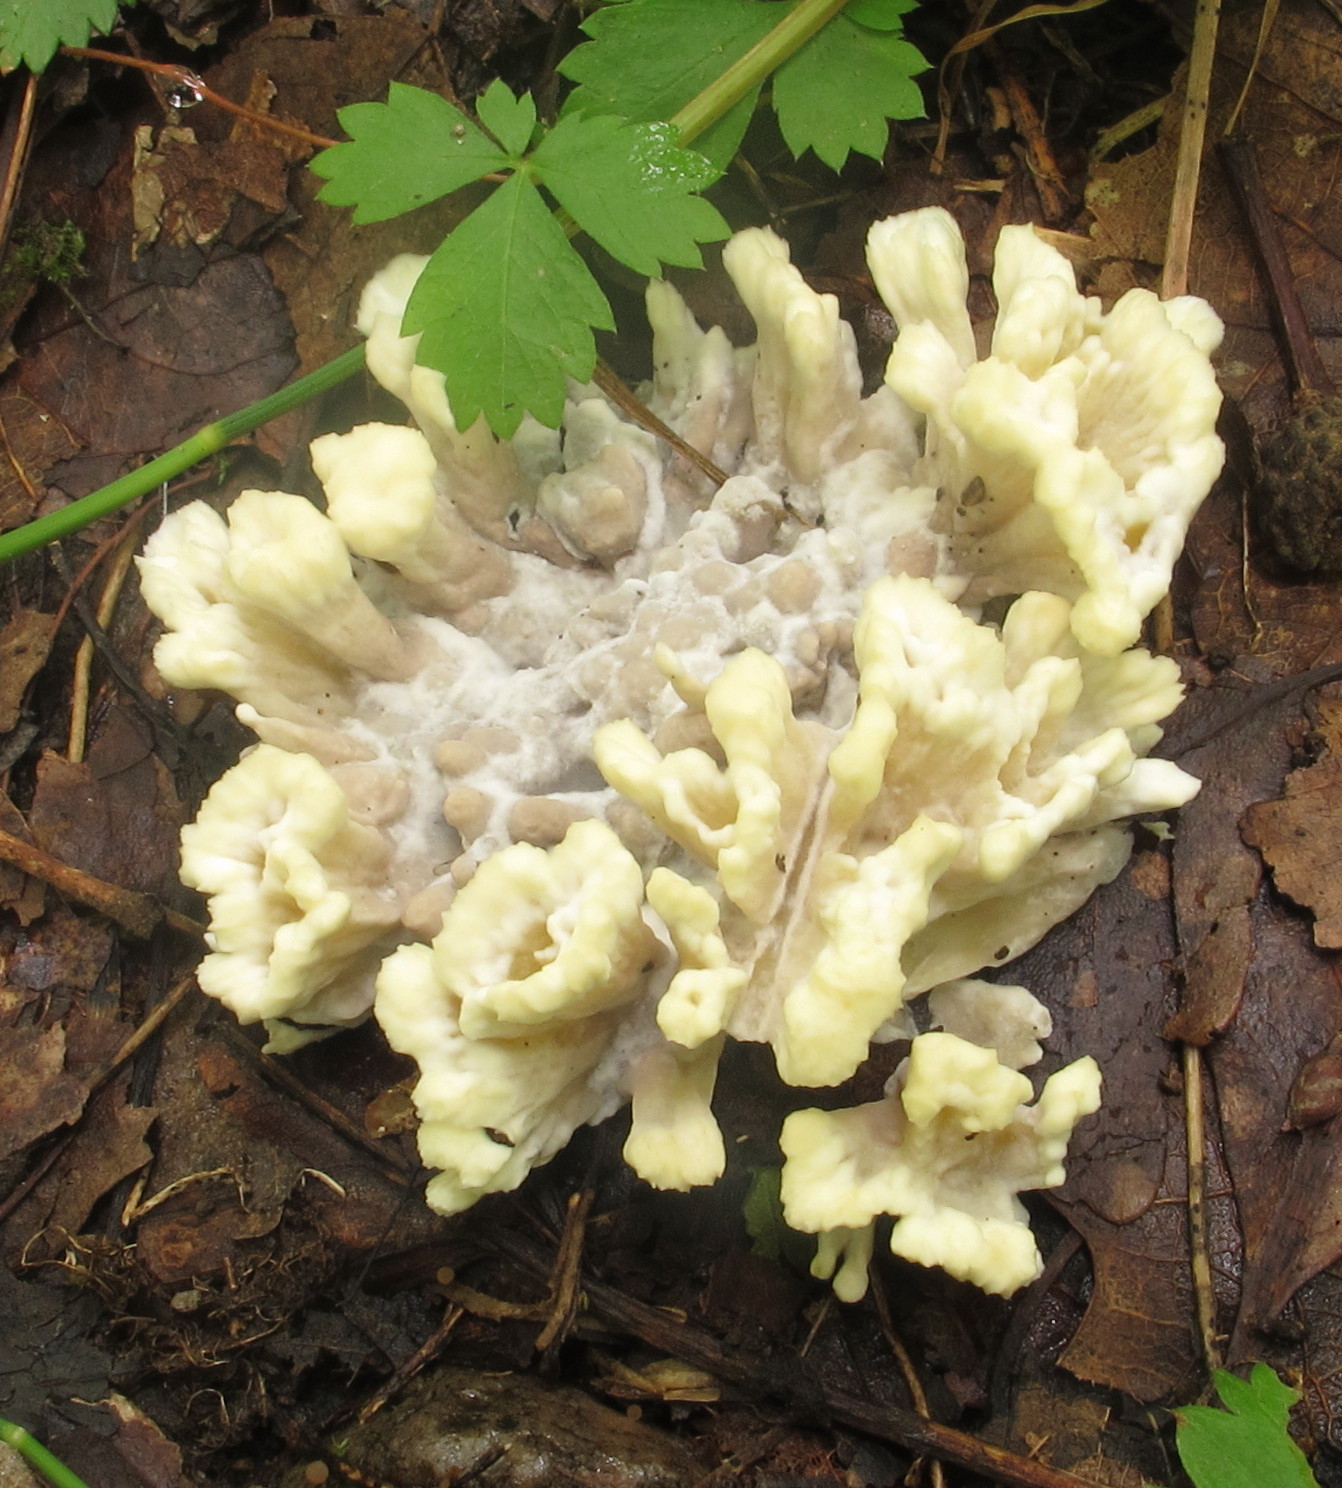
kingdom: Fungi
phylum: Basidiomycota
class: Agaricomycetes
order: Thelephorales
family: Thelephoraceae
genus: Thelephora
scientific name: Thelephora vialis
